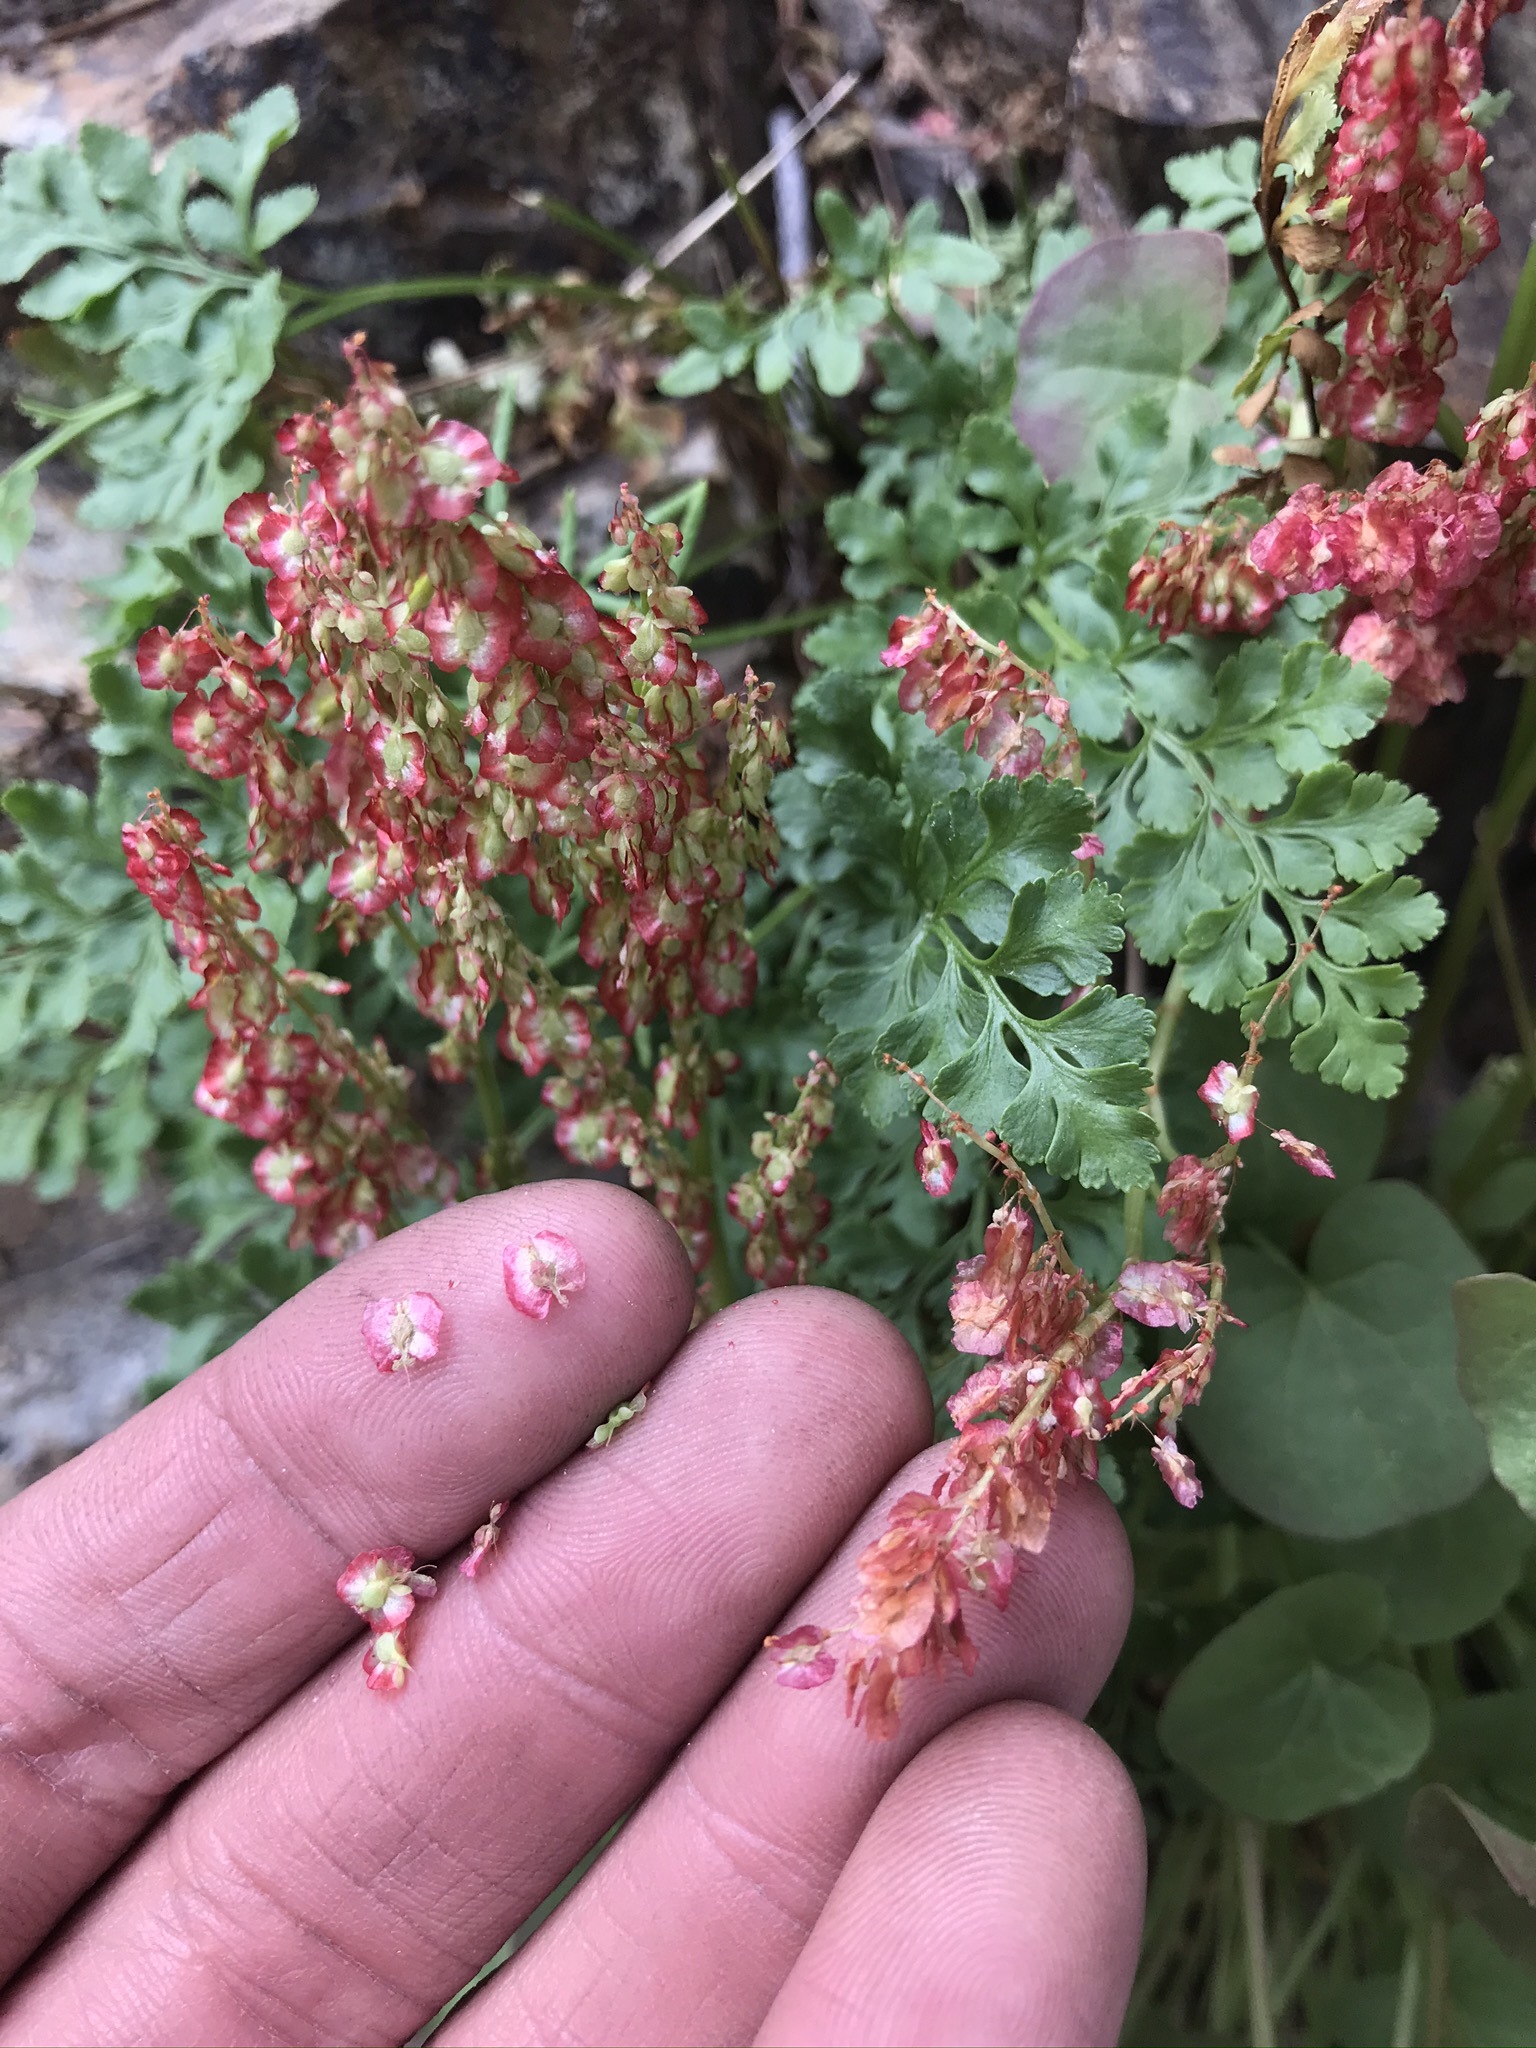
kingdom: Plantae
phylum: Tracheophyta
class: Magnoliopsida
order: Caryophyllales
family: Polygonaceae
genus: Oxyria
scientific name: Oxyria digyna
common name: Alpine mountain-sorrel
